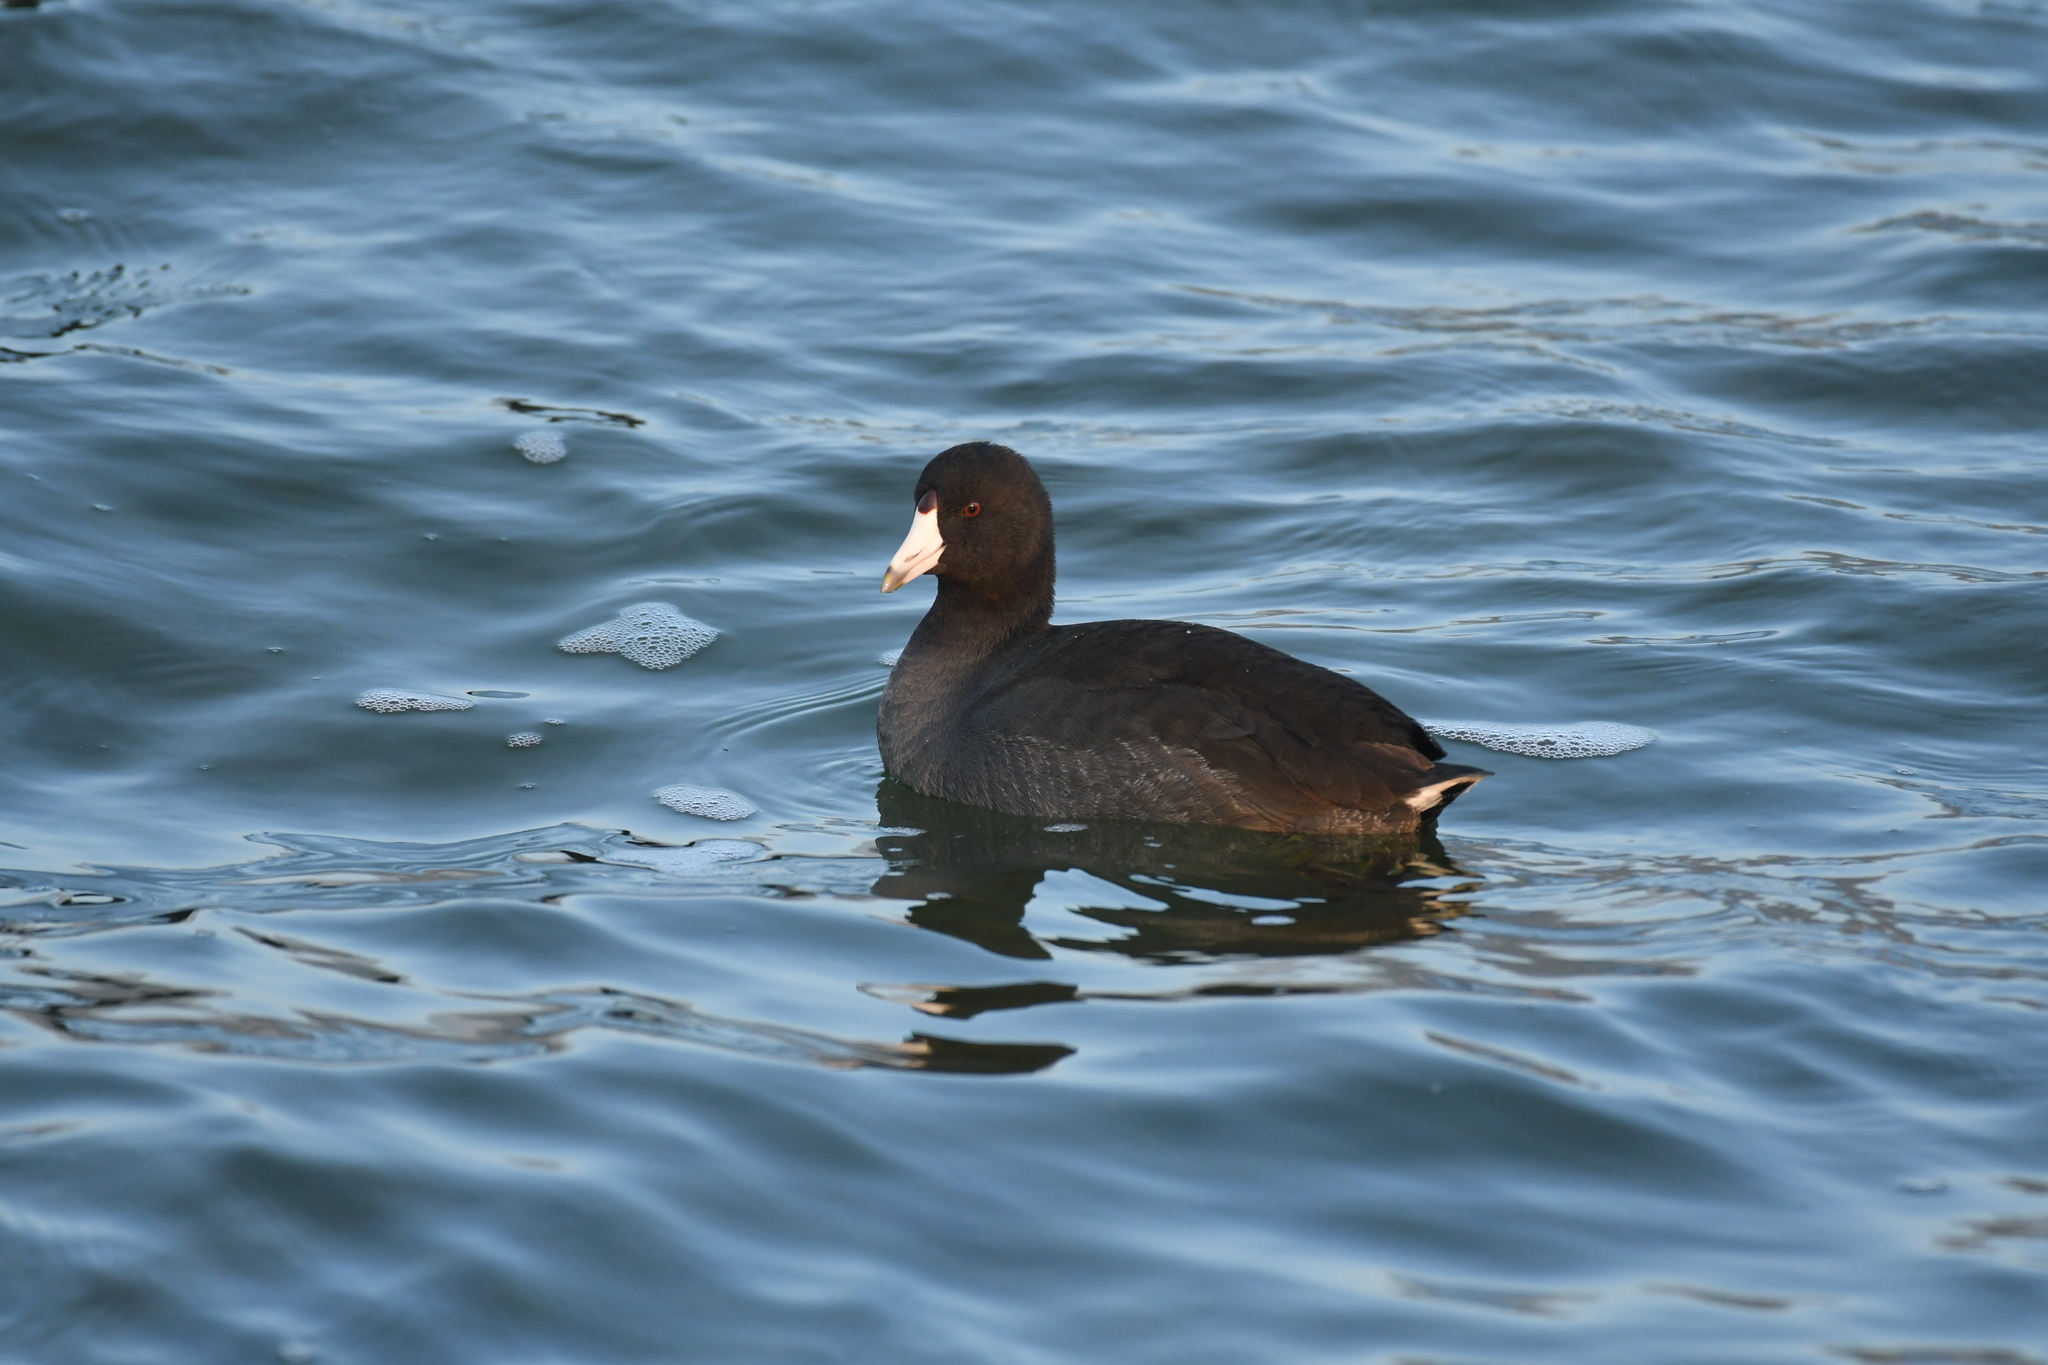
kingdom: Animalia
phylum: Chordata
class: Aves
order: Gruiformes
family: Rallidae
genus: Fulica
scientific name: Fulica americana
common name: American coot
